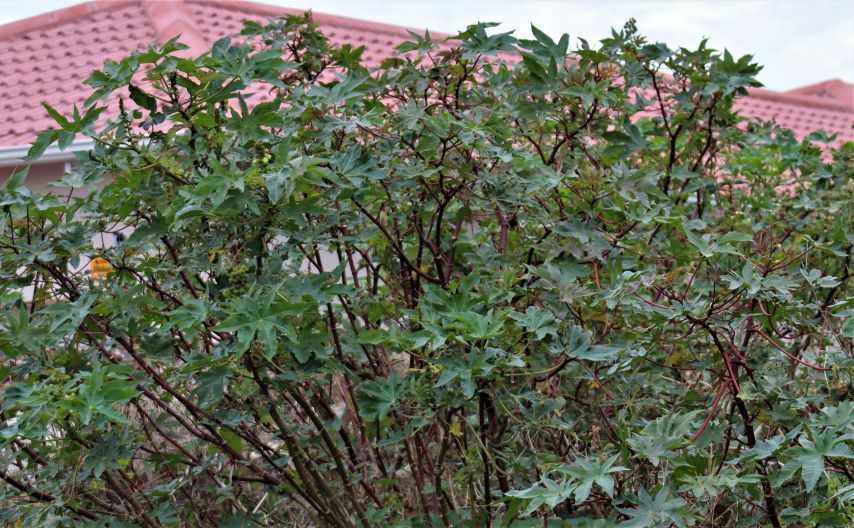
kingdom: Plantae
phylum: Tracheophyta
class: Magnoliopsida
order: Malpighiales
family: Euphorbiaceae
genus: Ricinus
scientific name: Ricinus communis
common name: Castor-oil-plant
